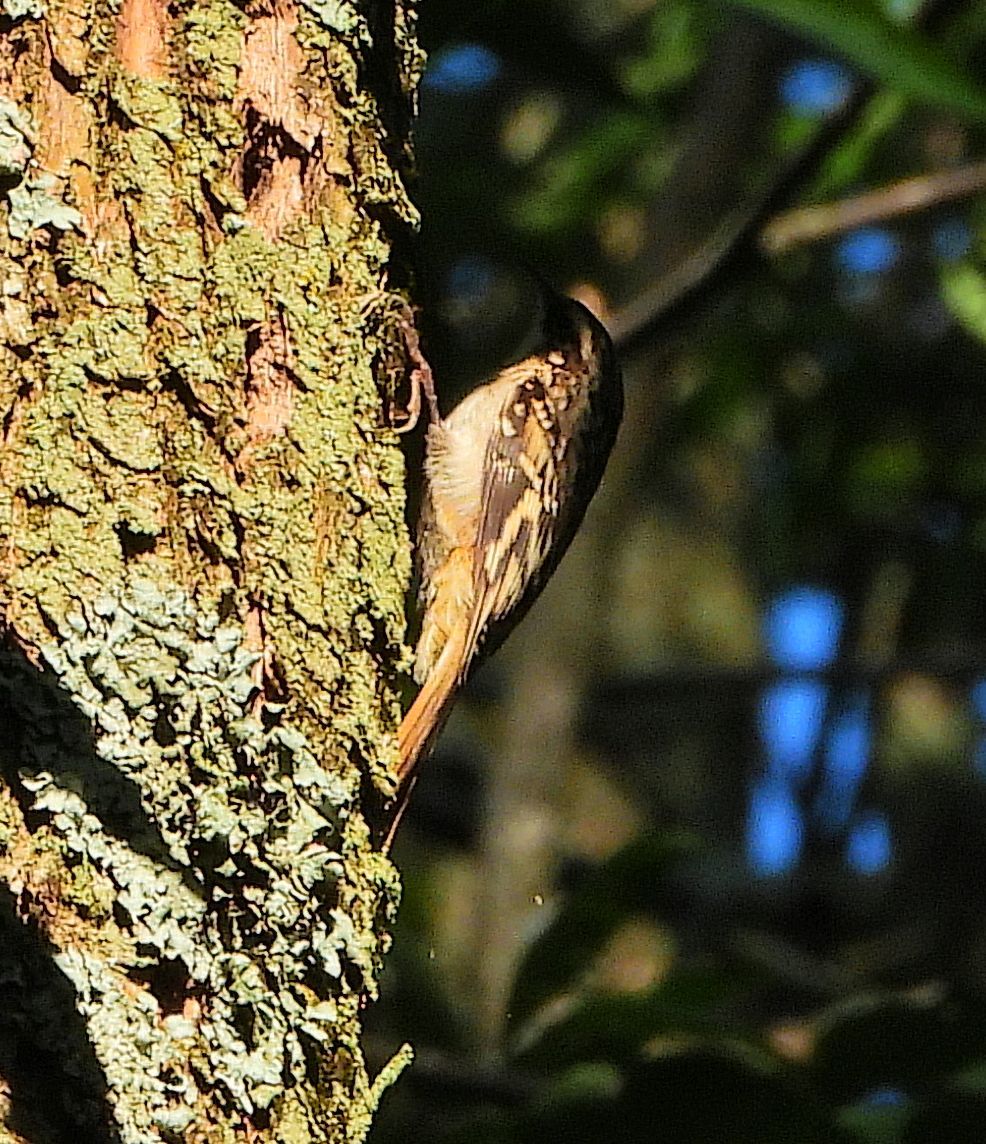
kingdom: Animalia
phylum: Chordata
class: Aves
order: Passeriformes
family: Certhiidae
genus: Certhia
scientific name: Certhia americana
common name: Brown creeper
